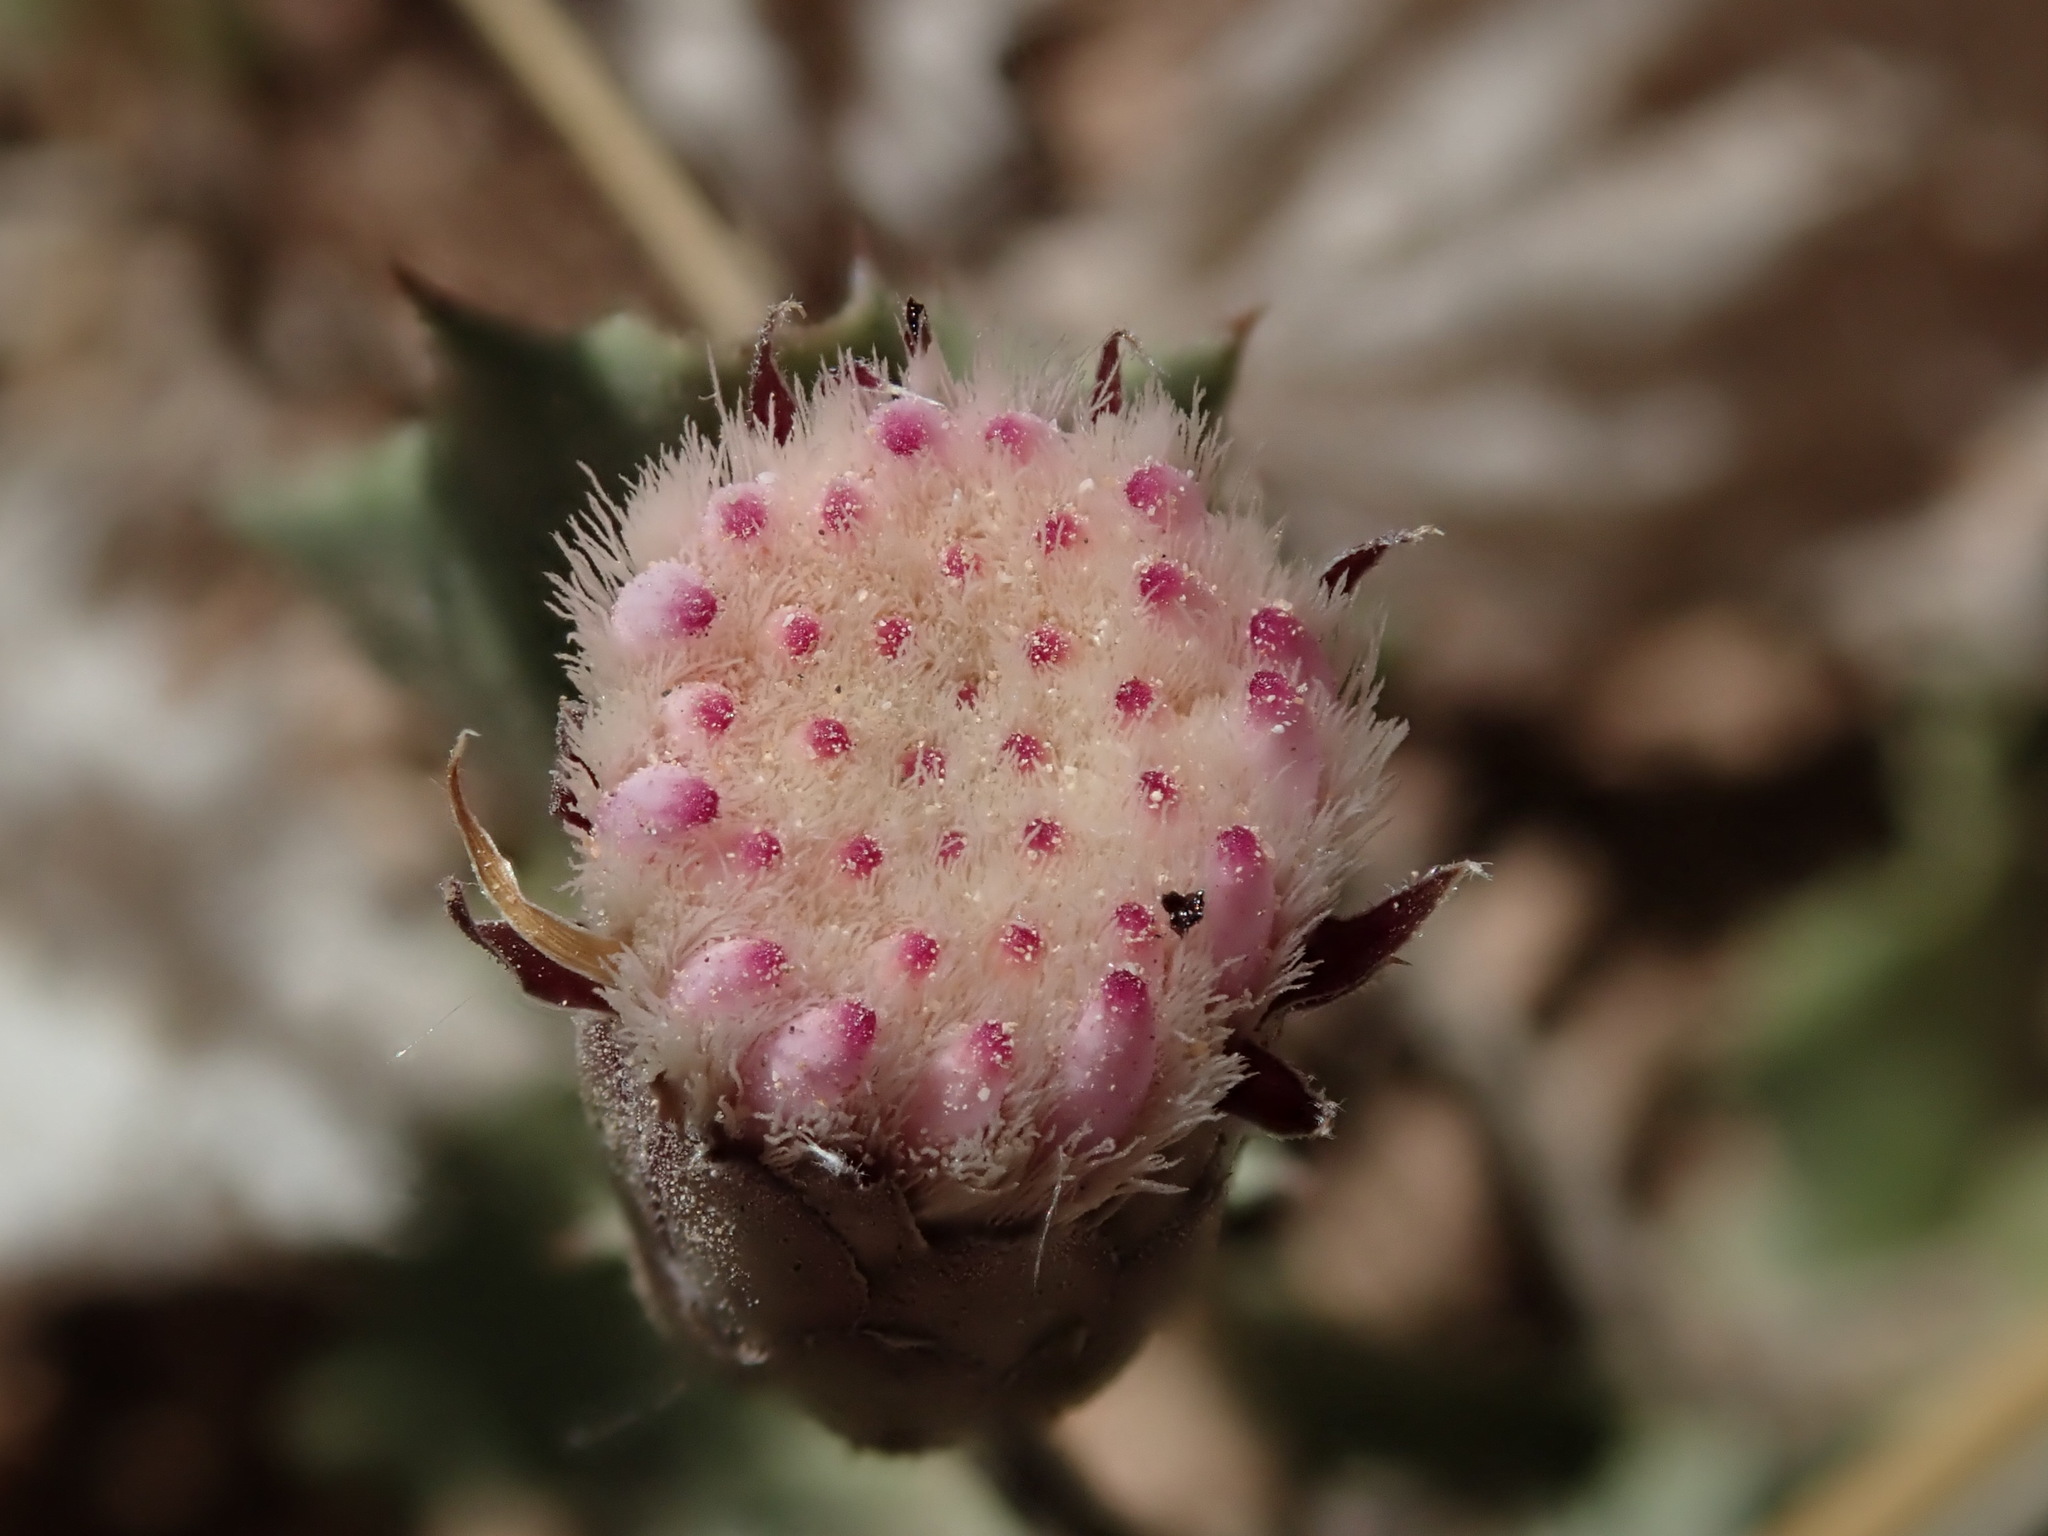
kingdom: Plantae
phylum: Tracheophyta
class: Magnoliopsida
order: Asterales
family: Asteraceae
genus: Acourtia
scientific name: Acourtia nana
